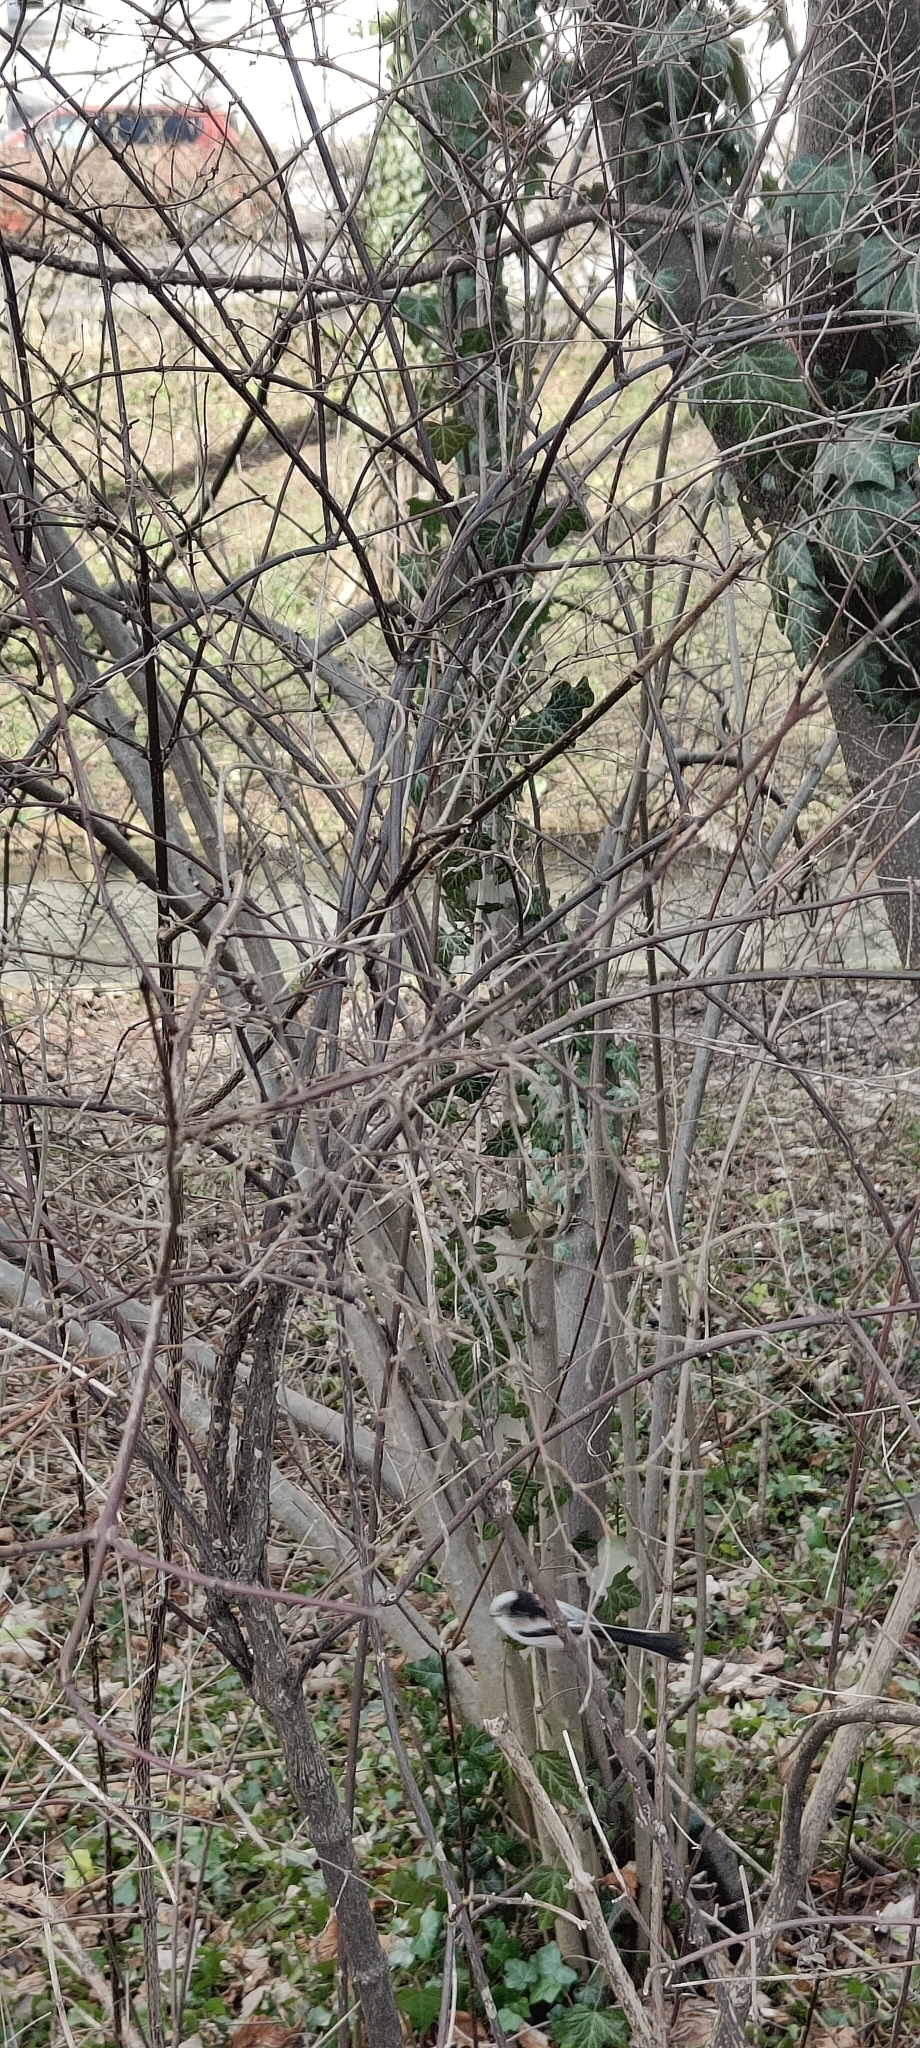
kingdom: Animalia
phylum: Chordata
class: Aves
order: Passeriformes
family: Aegithalidae
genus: Aegithalos
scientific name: Aegithalos caudatus
